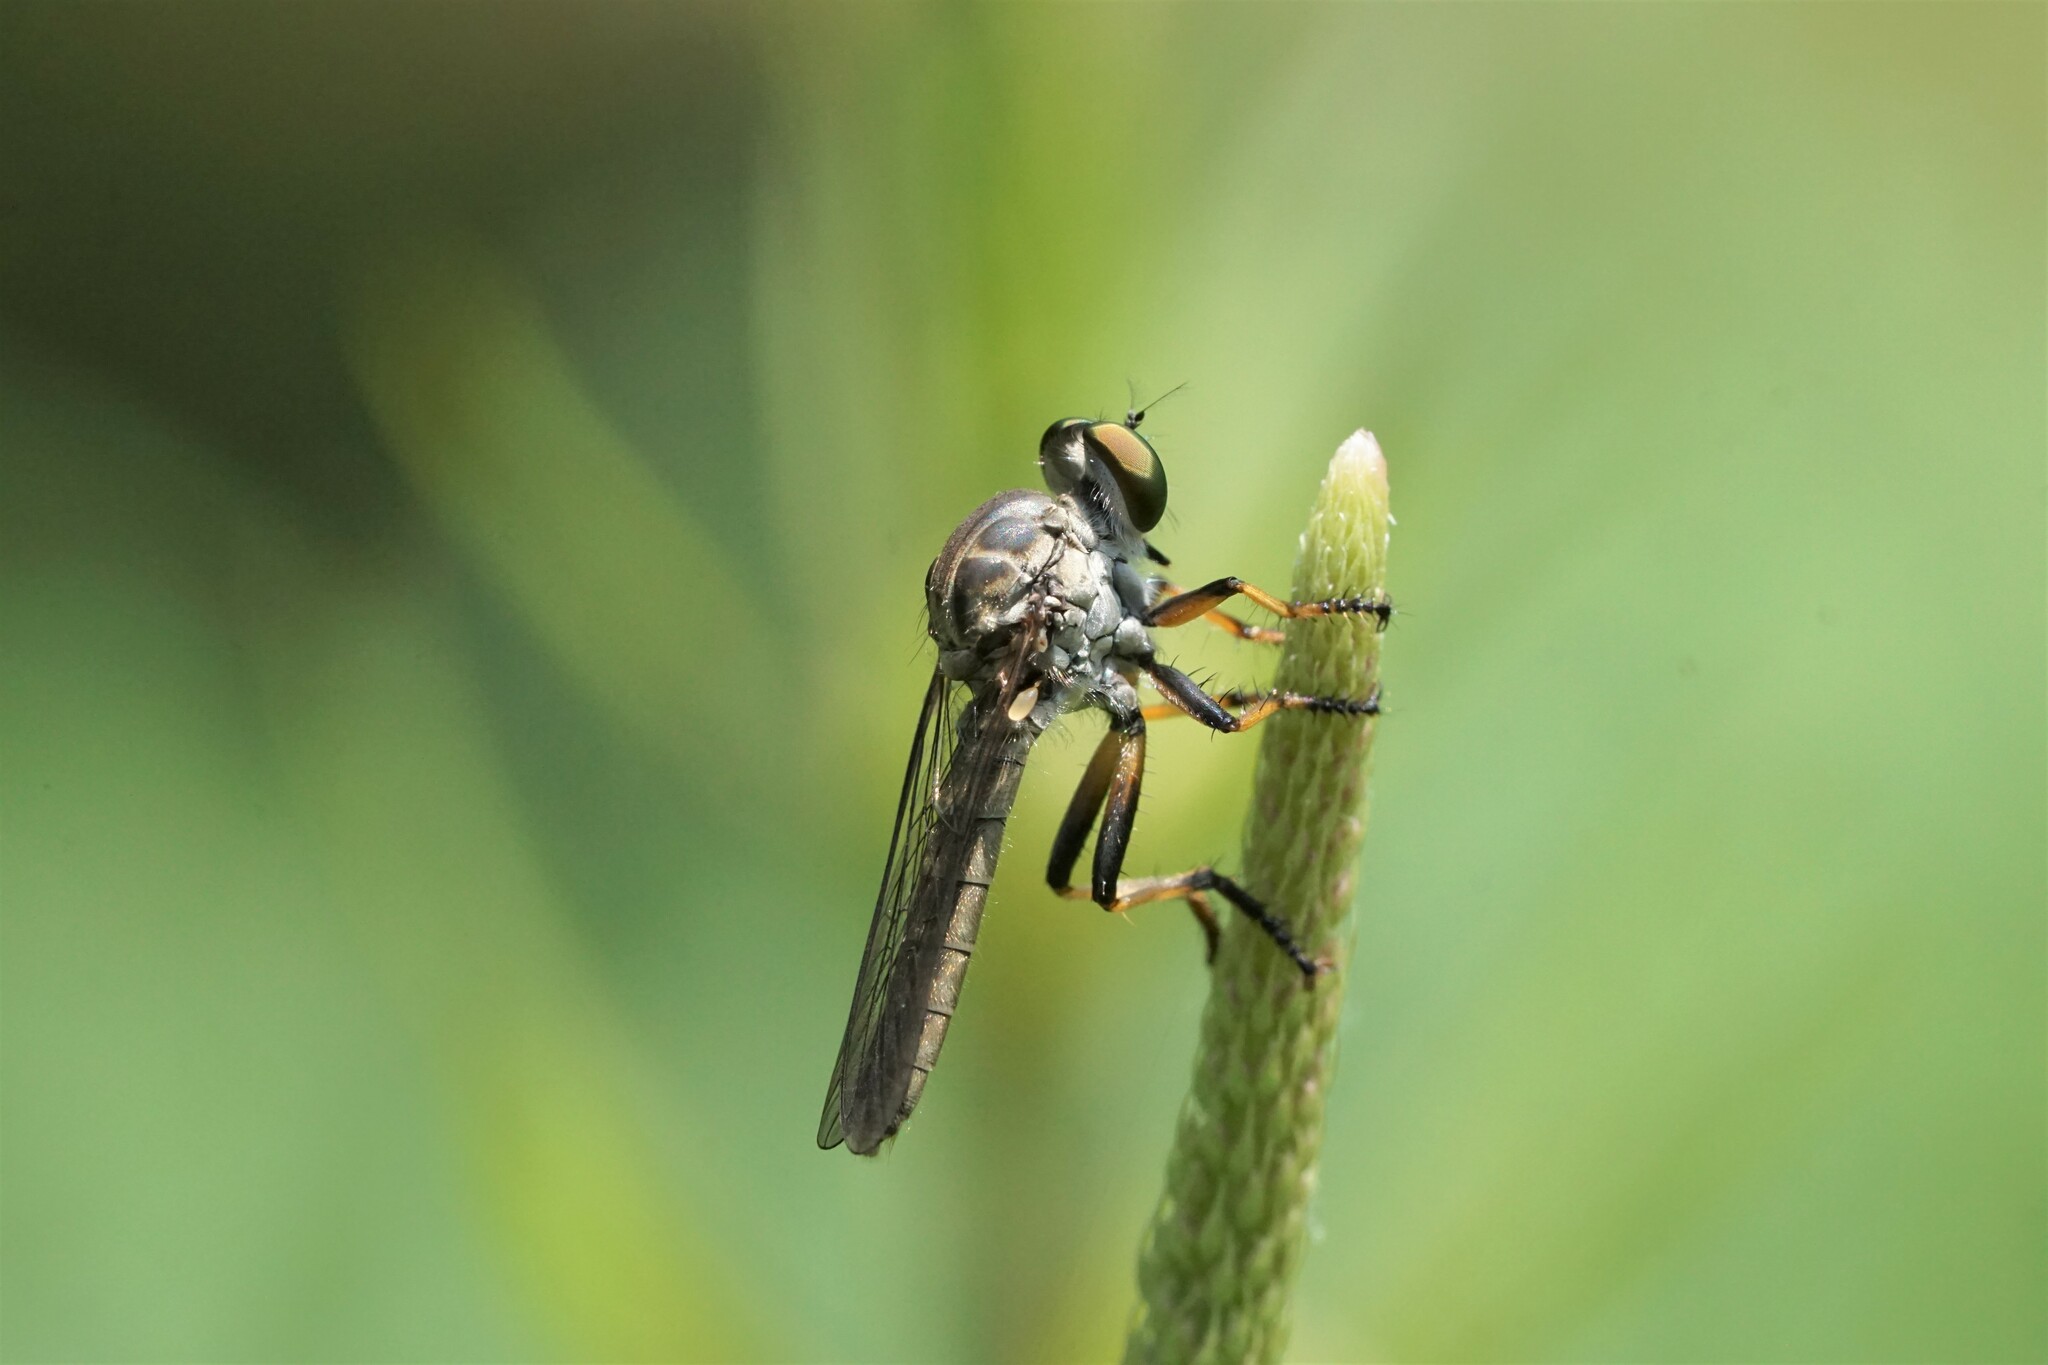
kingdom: Animalia
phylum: Arthropoda
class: Insecta
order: Diptera
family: Asilidae
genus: Ommatius
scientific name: Ommatius tibialis
